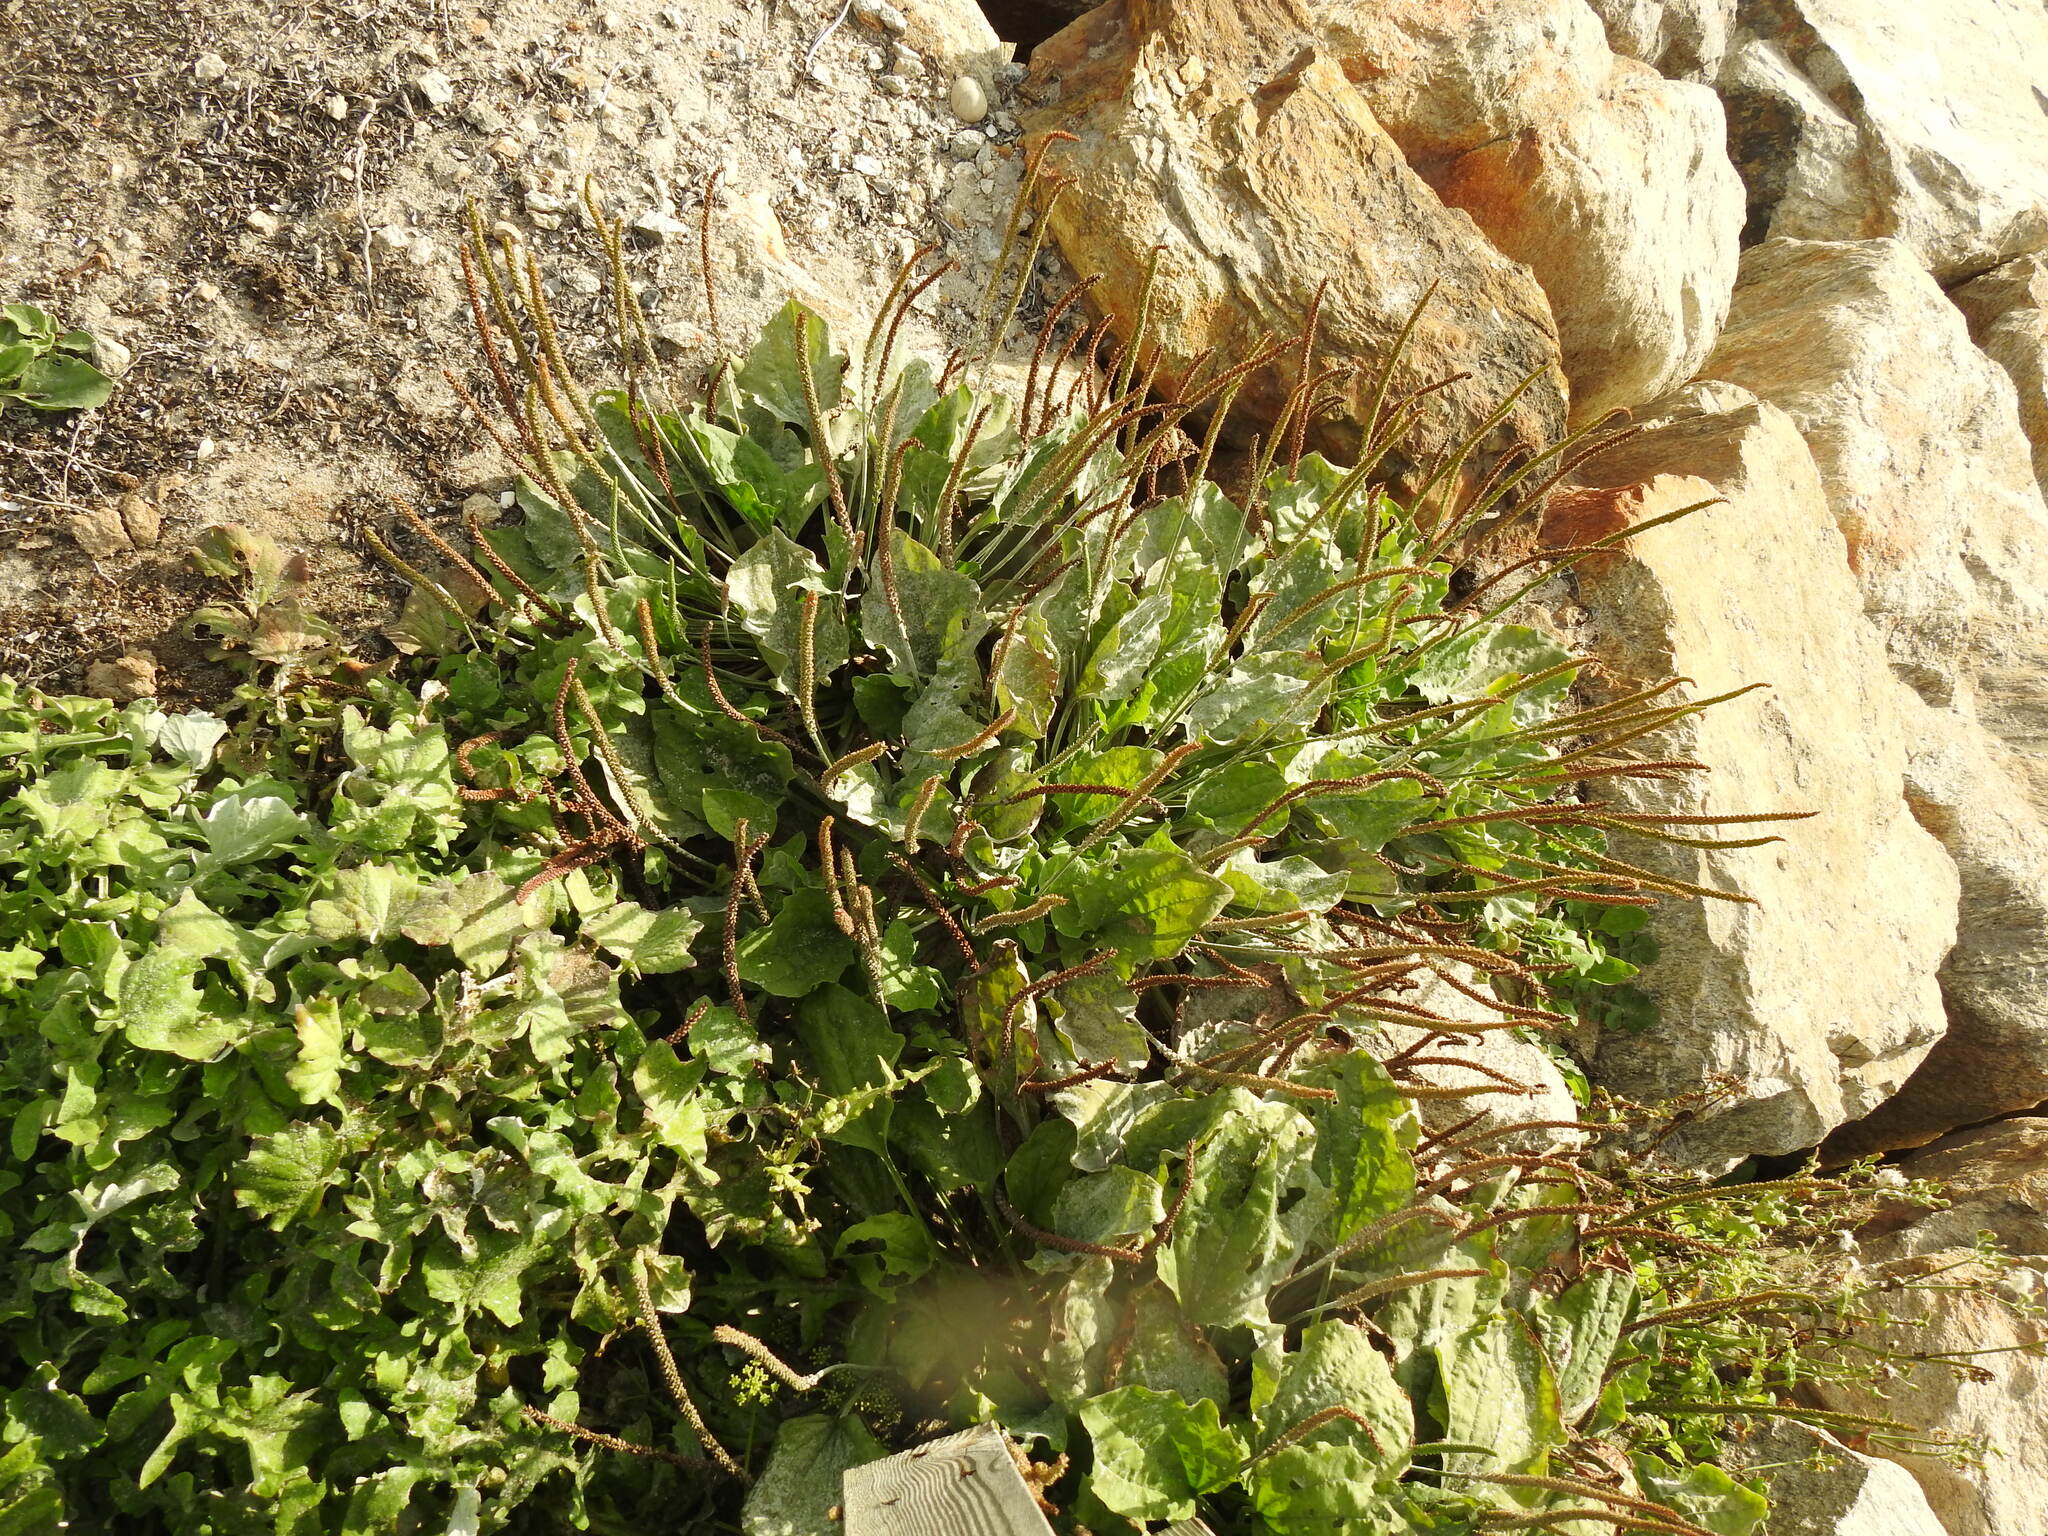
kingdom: Plantae
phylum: Tracheophyta
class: Magnoliopsida
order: Lamiales
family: Plantaginaceae
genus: Plantago
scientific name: Plantago major
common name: Common plantain
